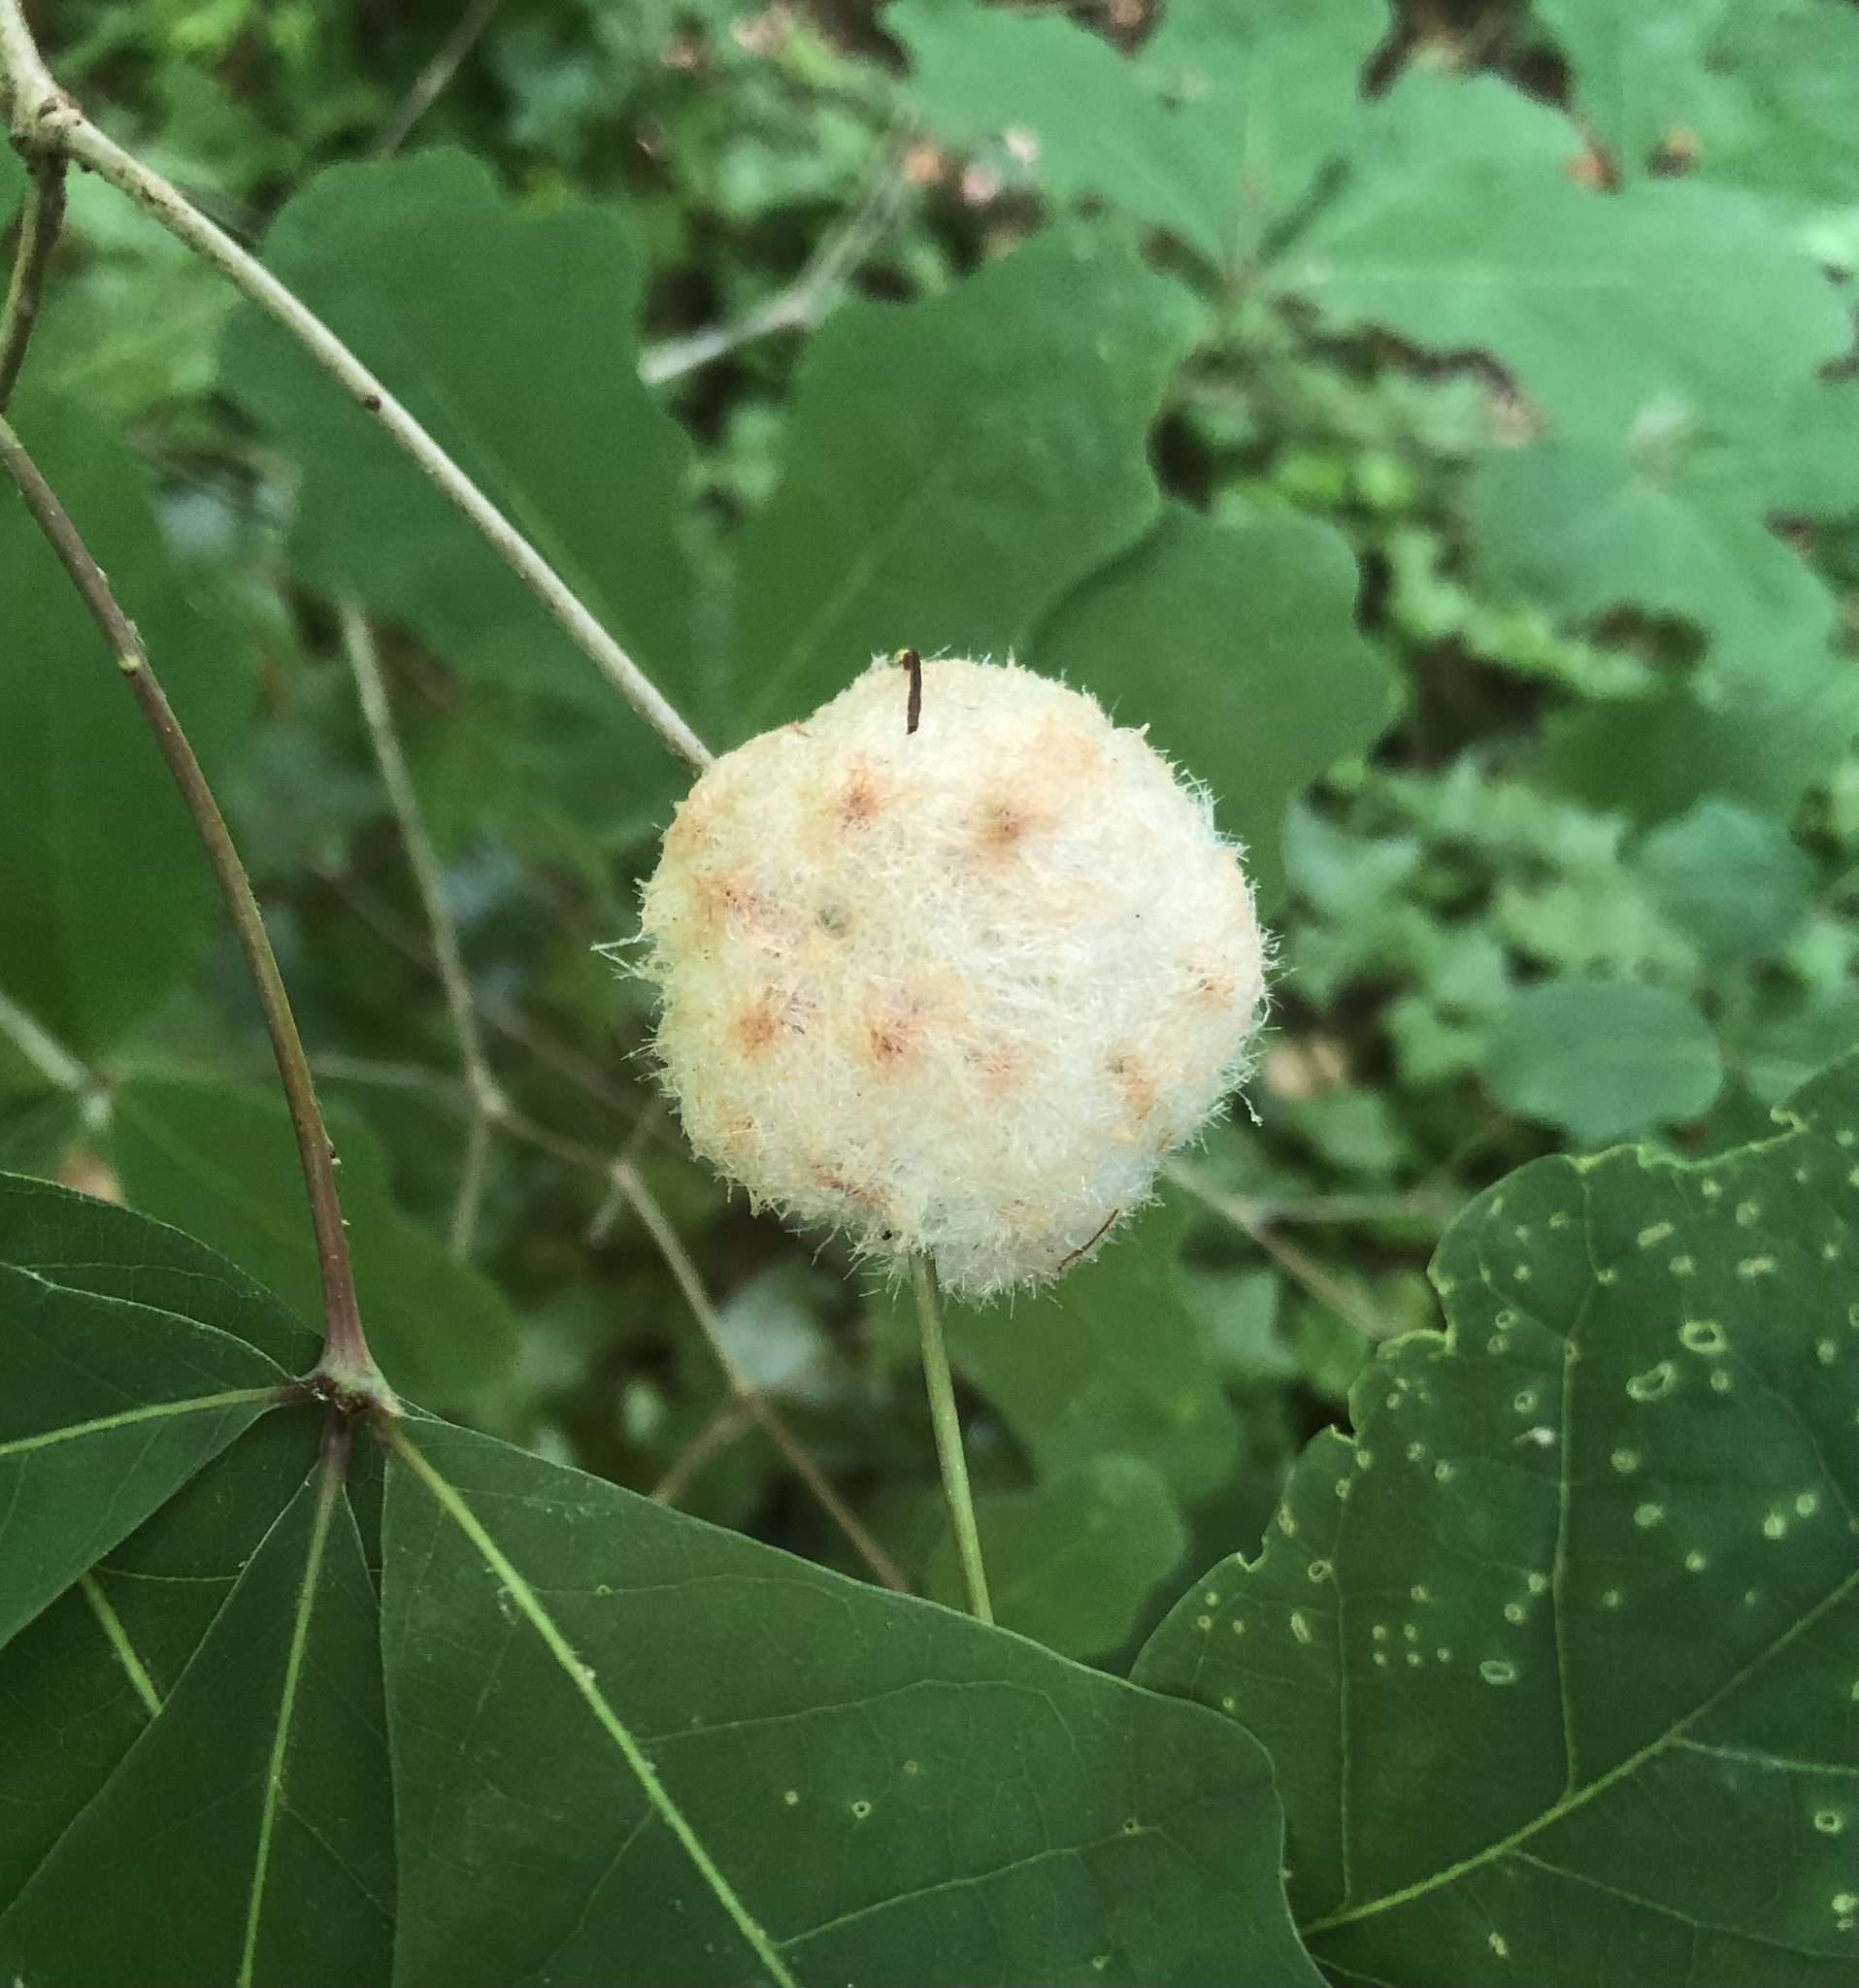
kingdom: Animalia
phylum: Arthropoda
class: Insecta
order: Hymenoptera
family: Cynipidae
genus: Callirhytis
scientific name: Callirhytis
